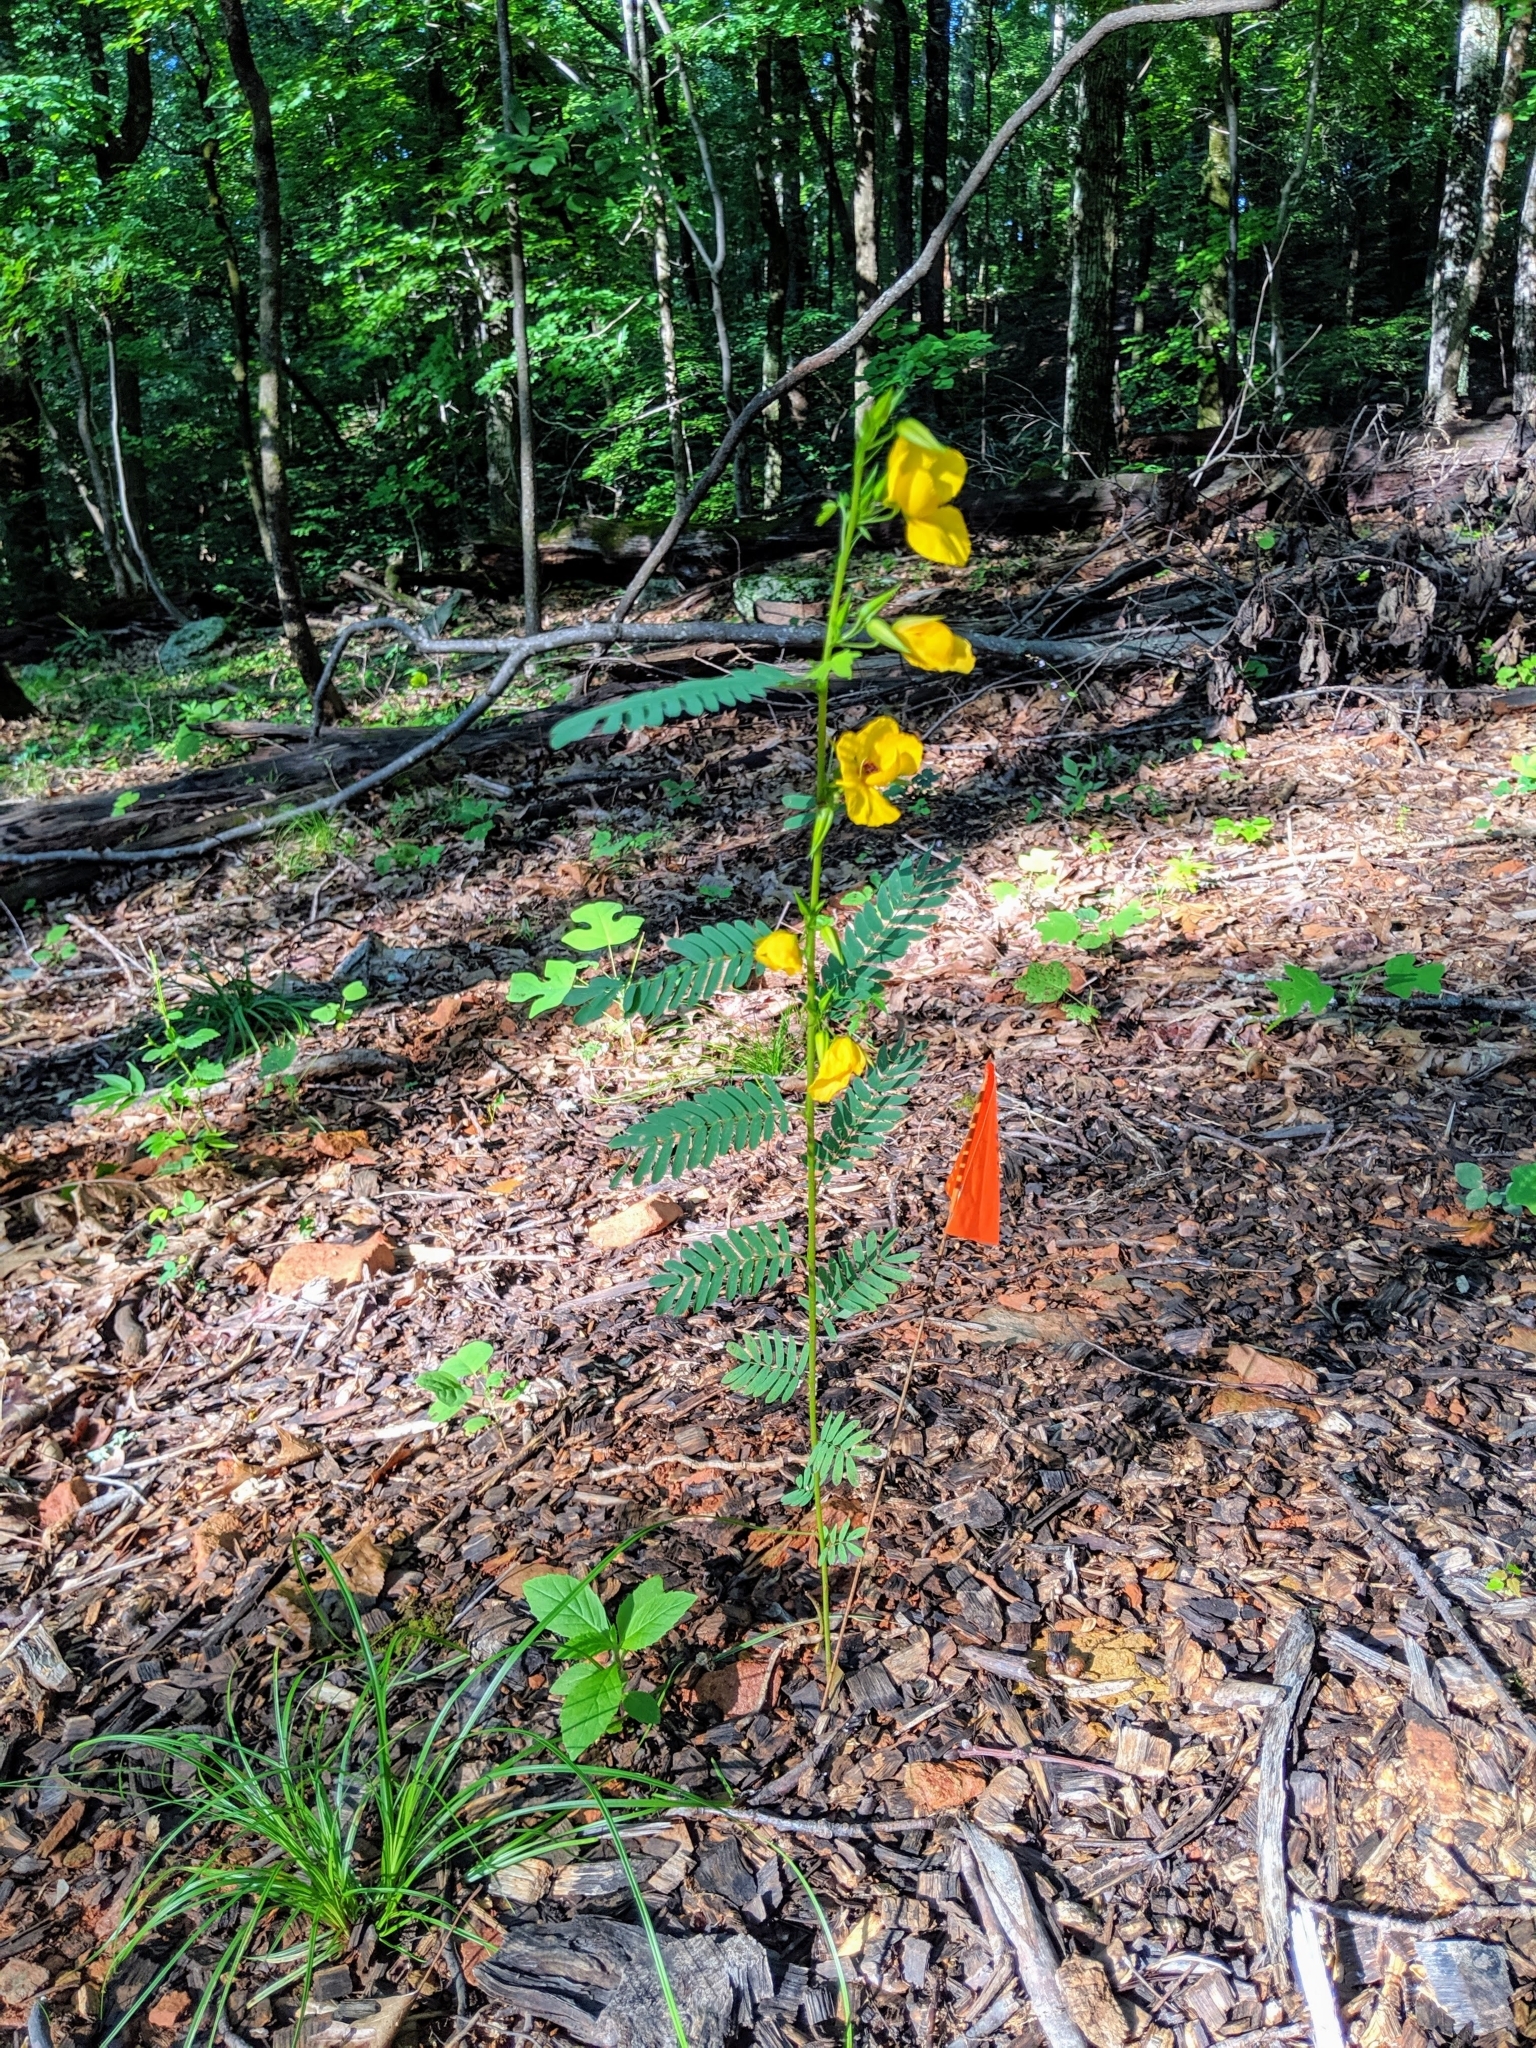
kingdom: Plantae
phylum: Tracheophyta
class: Magnoliopsida
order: Fabales
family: Fabaceae
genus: Chamaecrista
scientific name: Chamaecrista fasciculata
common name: Golden cassia
